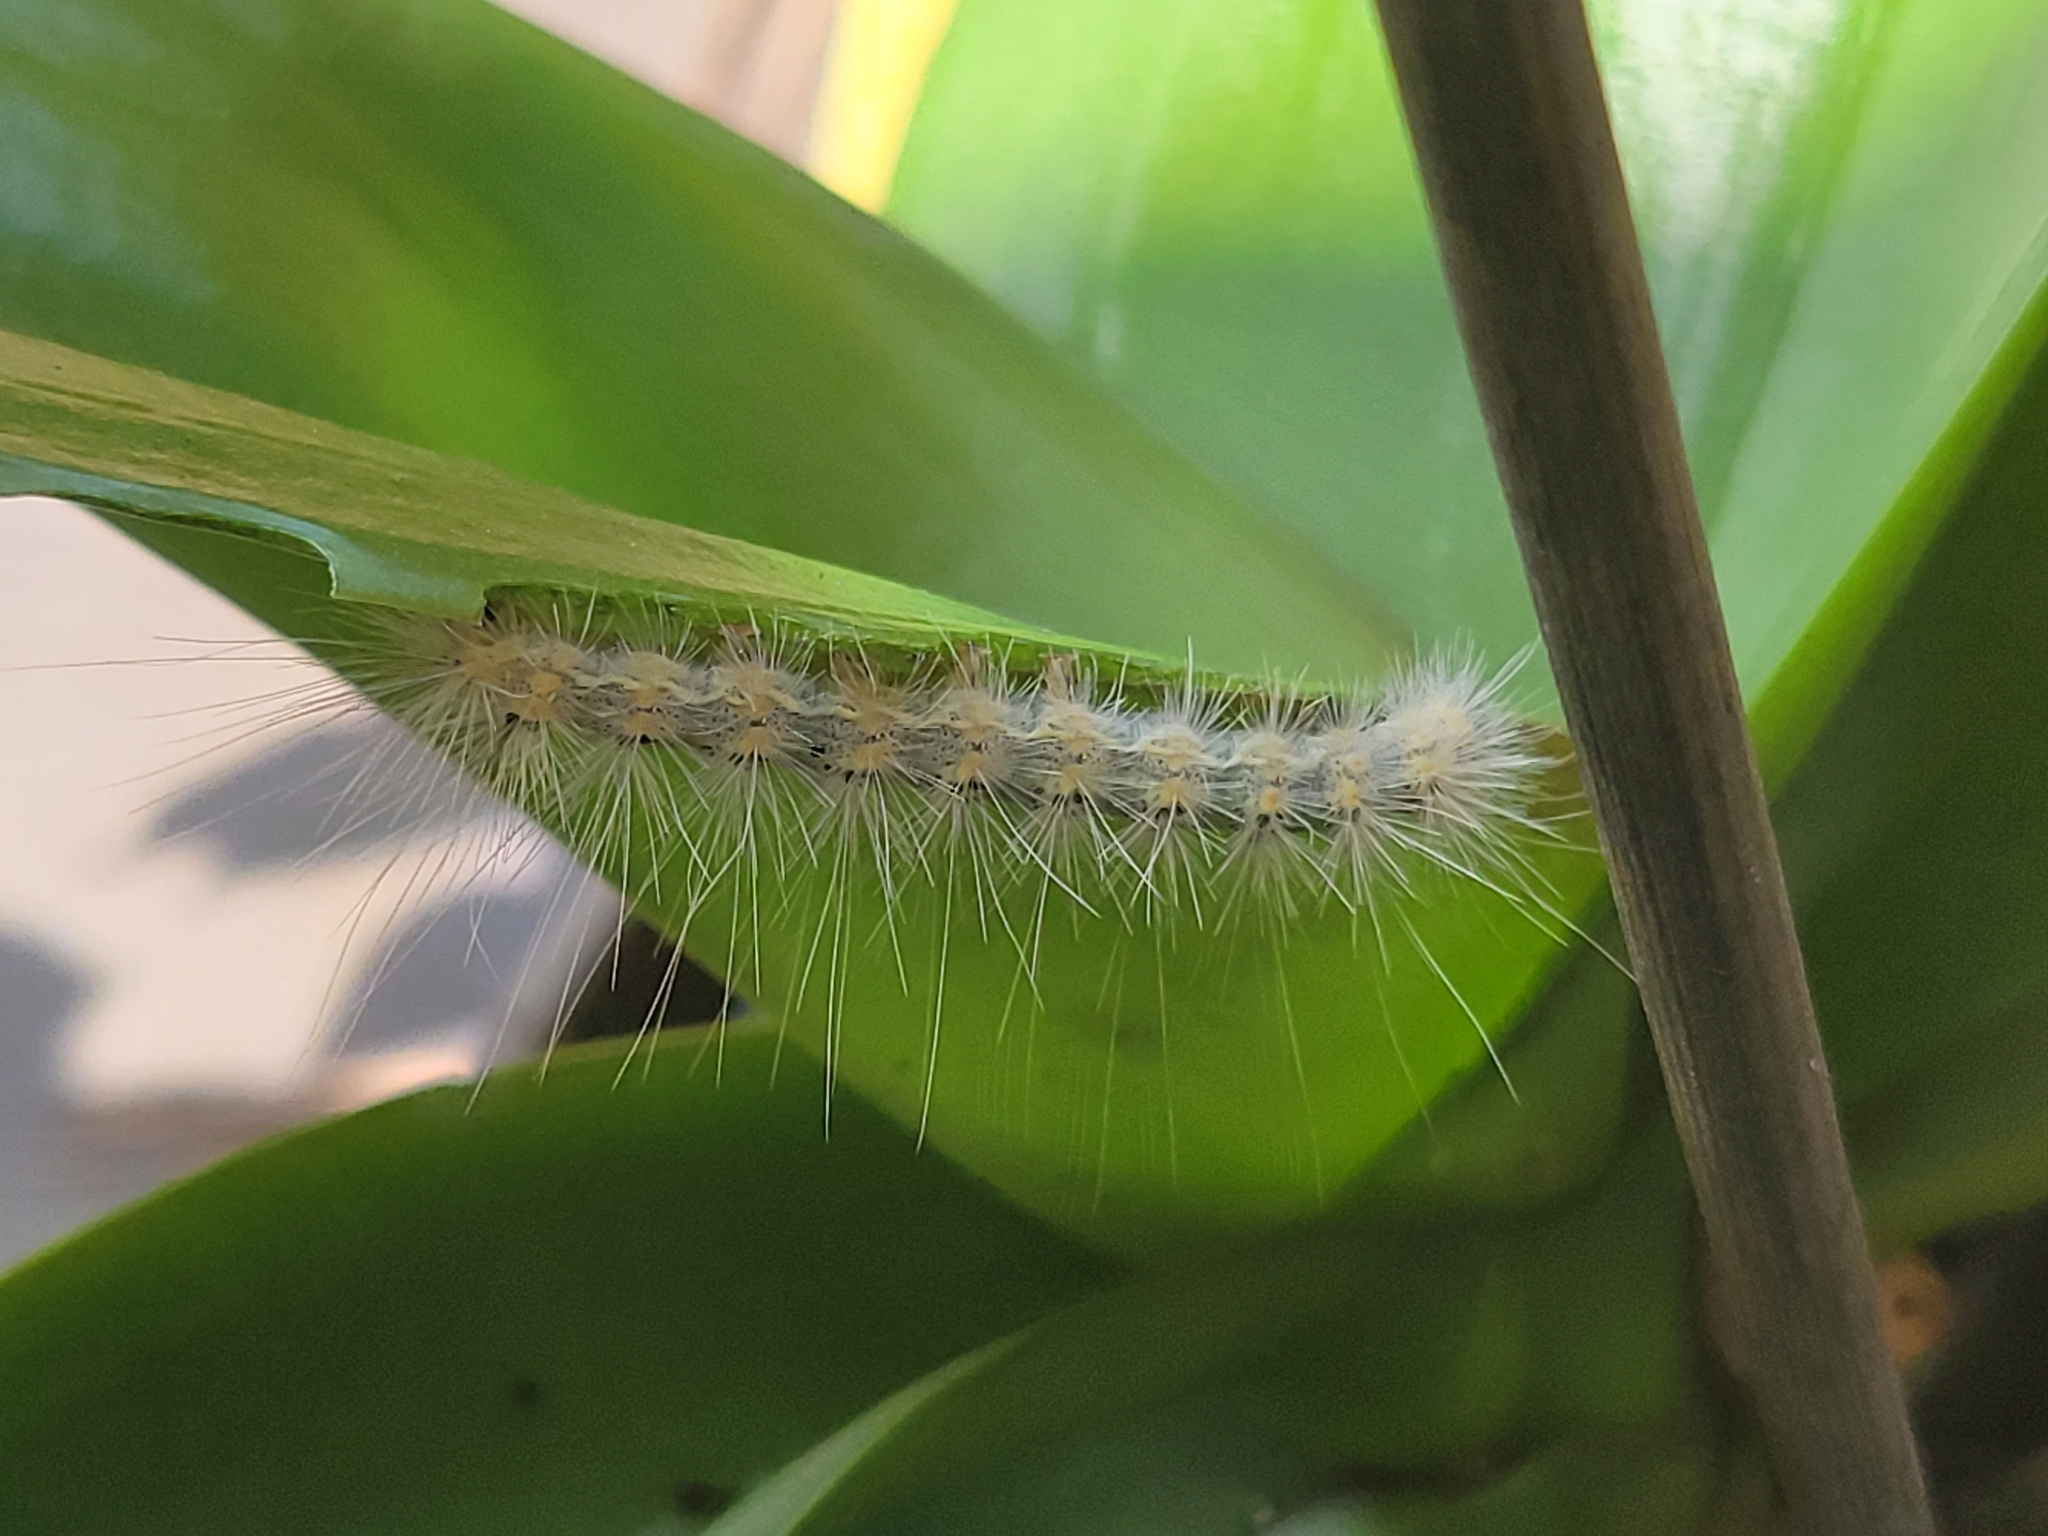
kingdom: Animalia
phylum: Arthropoda
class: Insecta
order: Lepidoptera
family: Erebidae
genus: Hyphantria
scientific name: Hyphantria cunea
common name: American white moth
